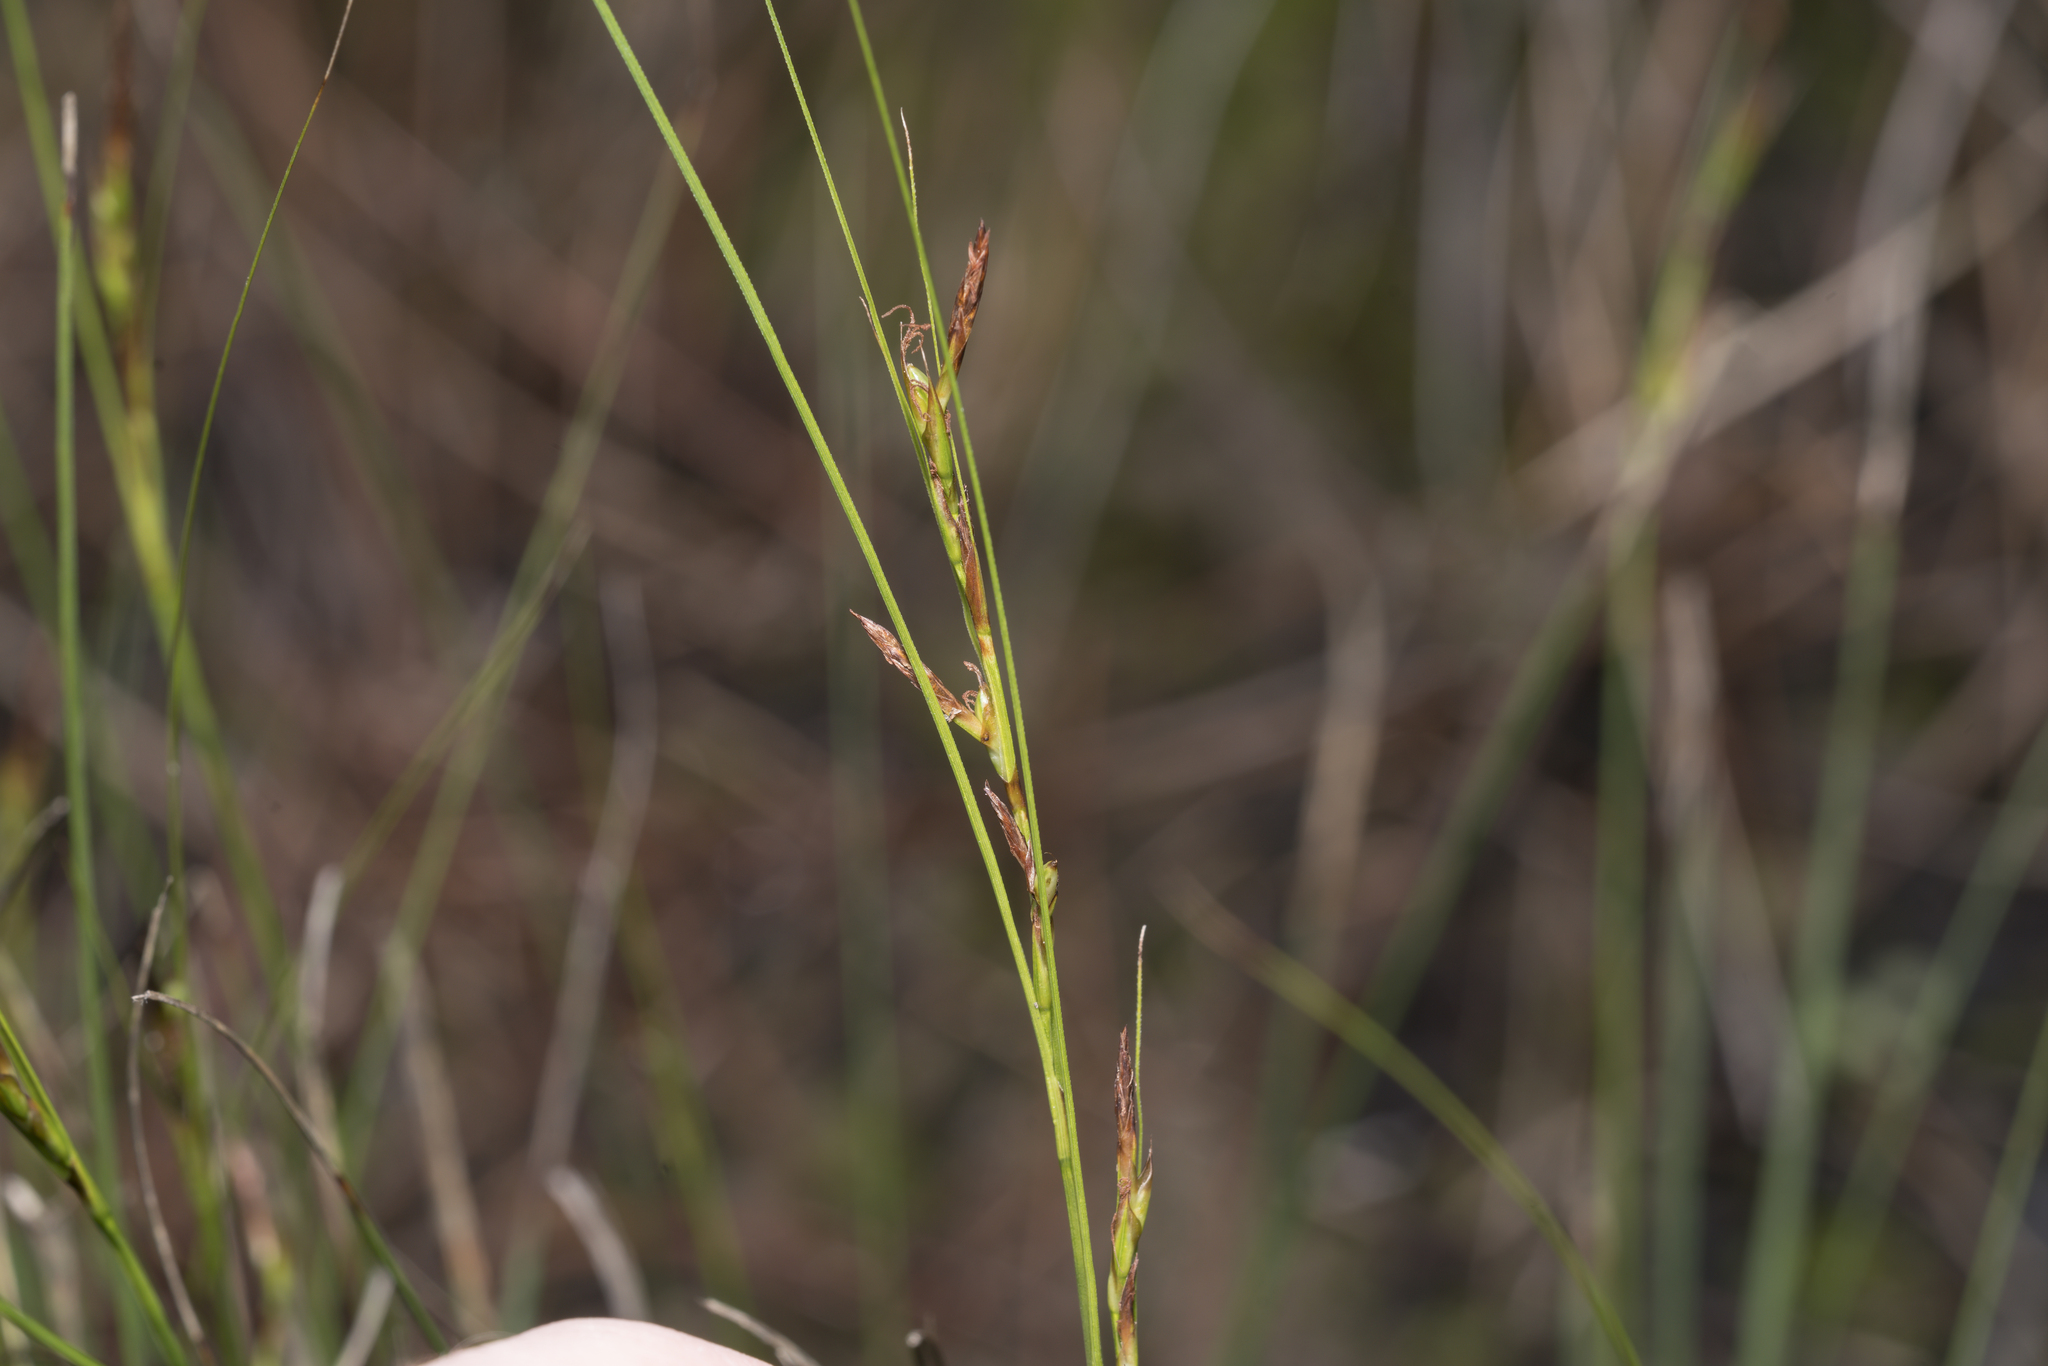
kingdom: Plantae
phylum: Tracheophyta
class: Liliopsida
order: Poales
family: Cyperaceae
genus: Carex
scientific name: Carex illegitima
